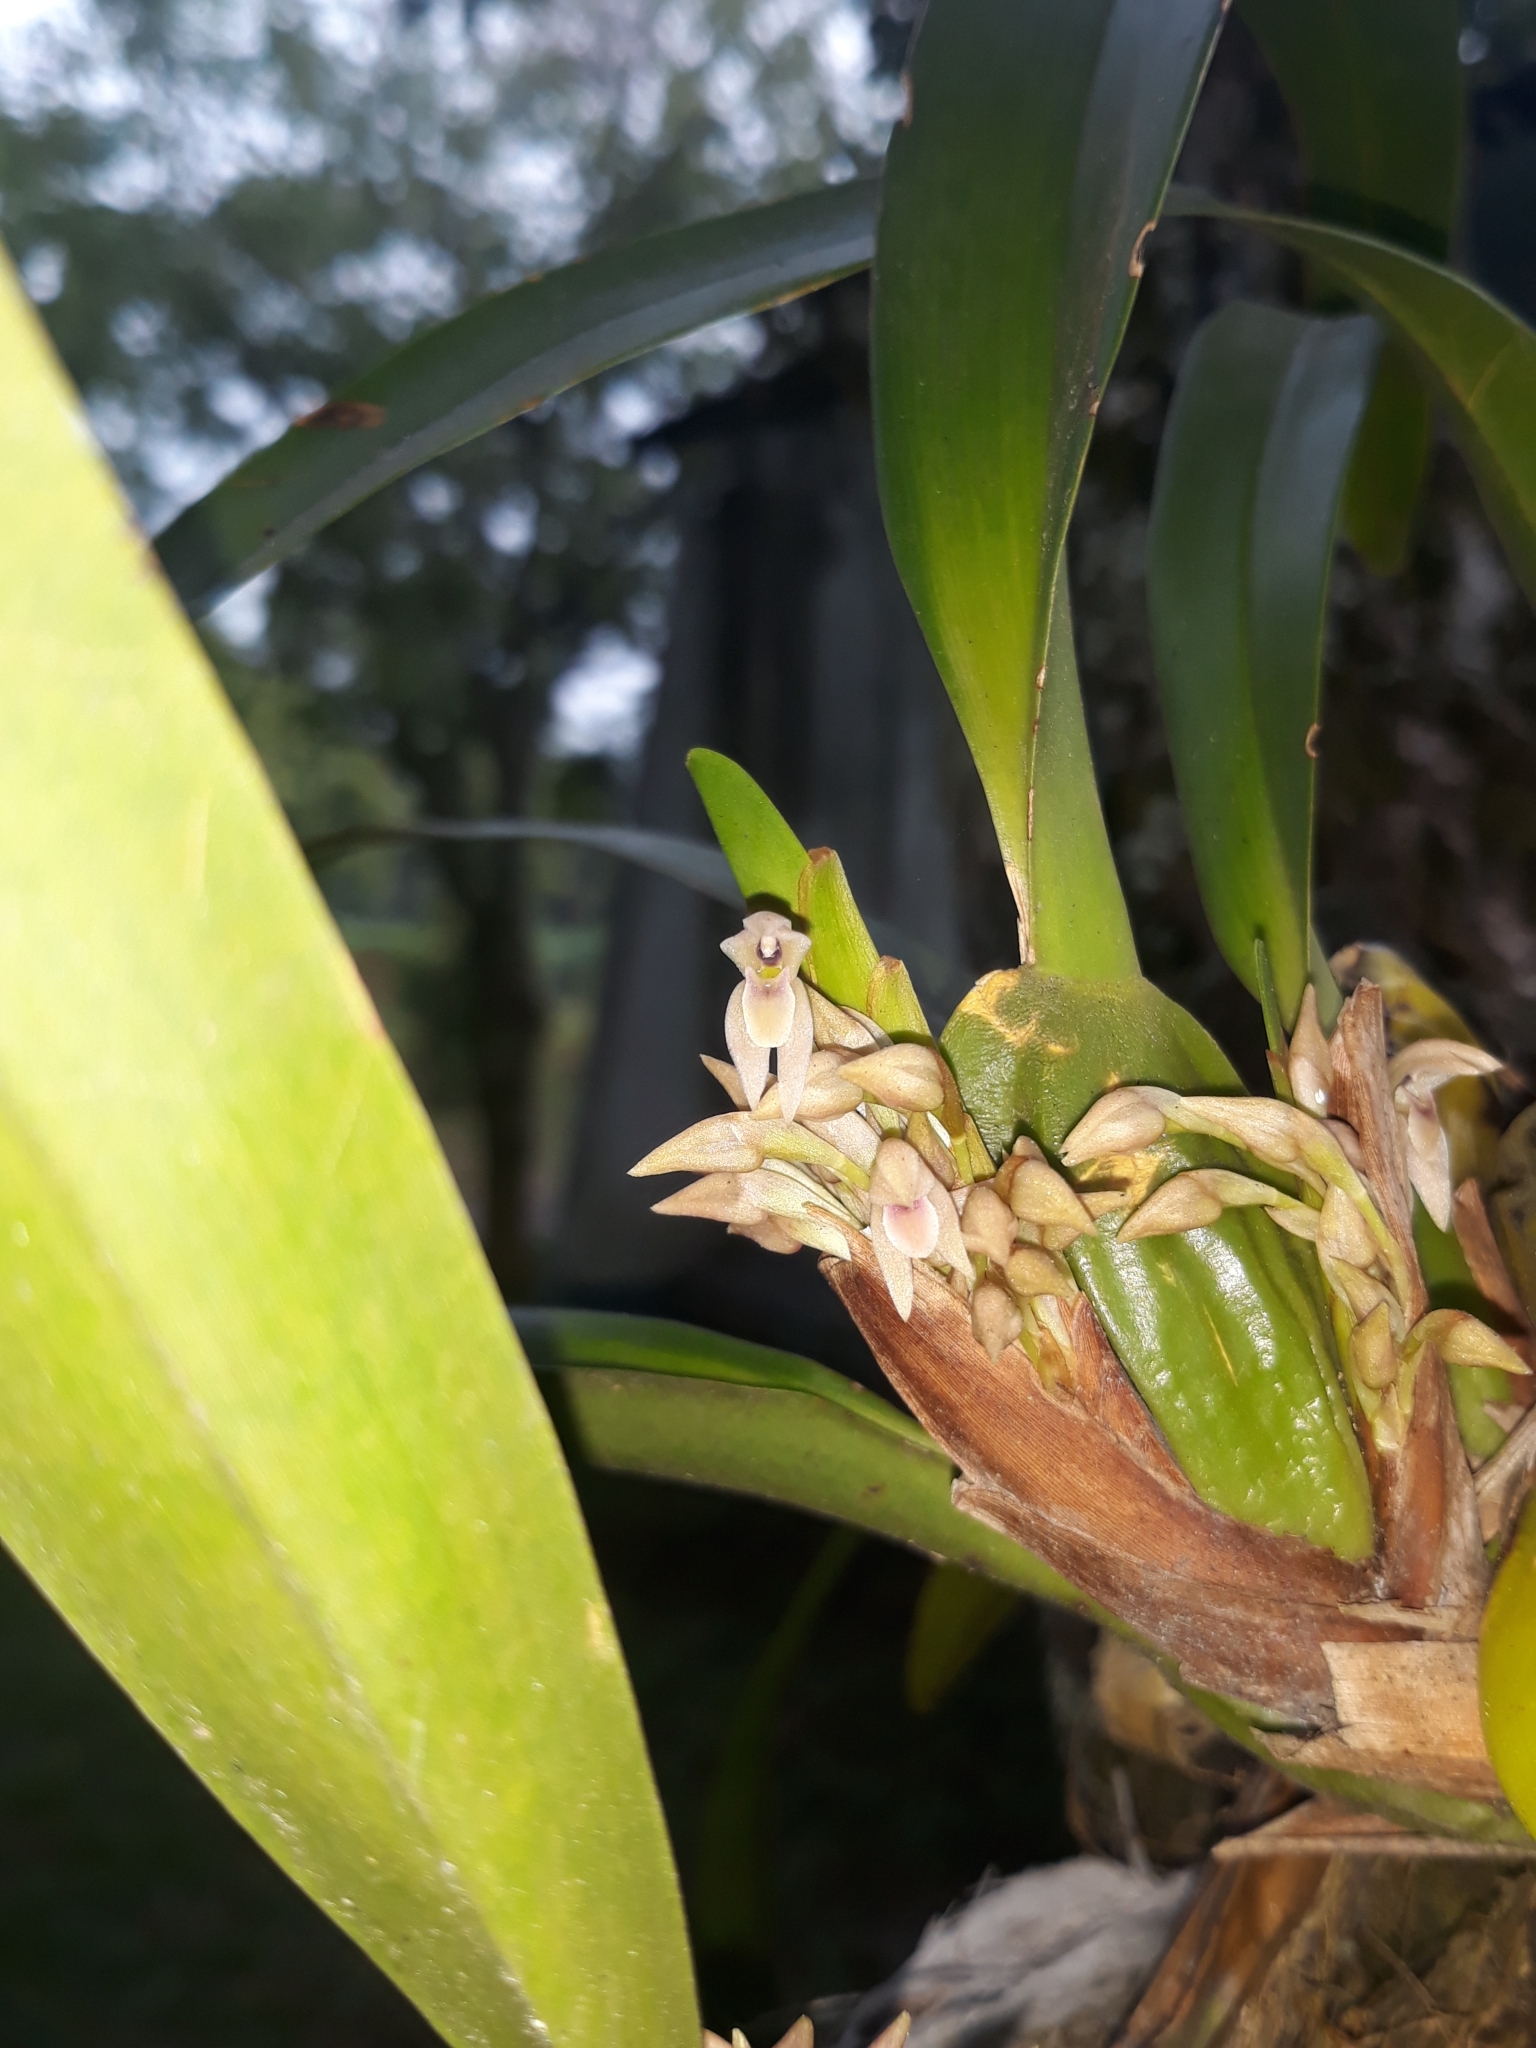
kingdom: Plantae
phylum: Tracheophyta
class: Liliopsida
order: Asparagales
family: Orchidaceae
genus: Maxillaria
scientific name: Maxillaria densa
